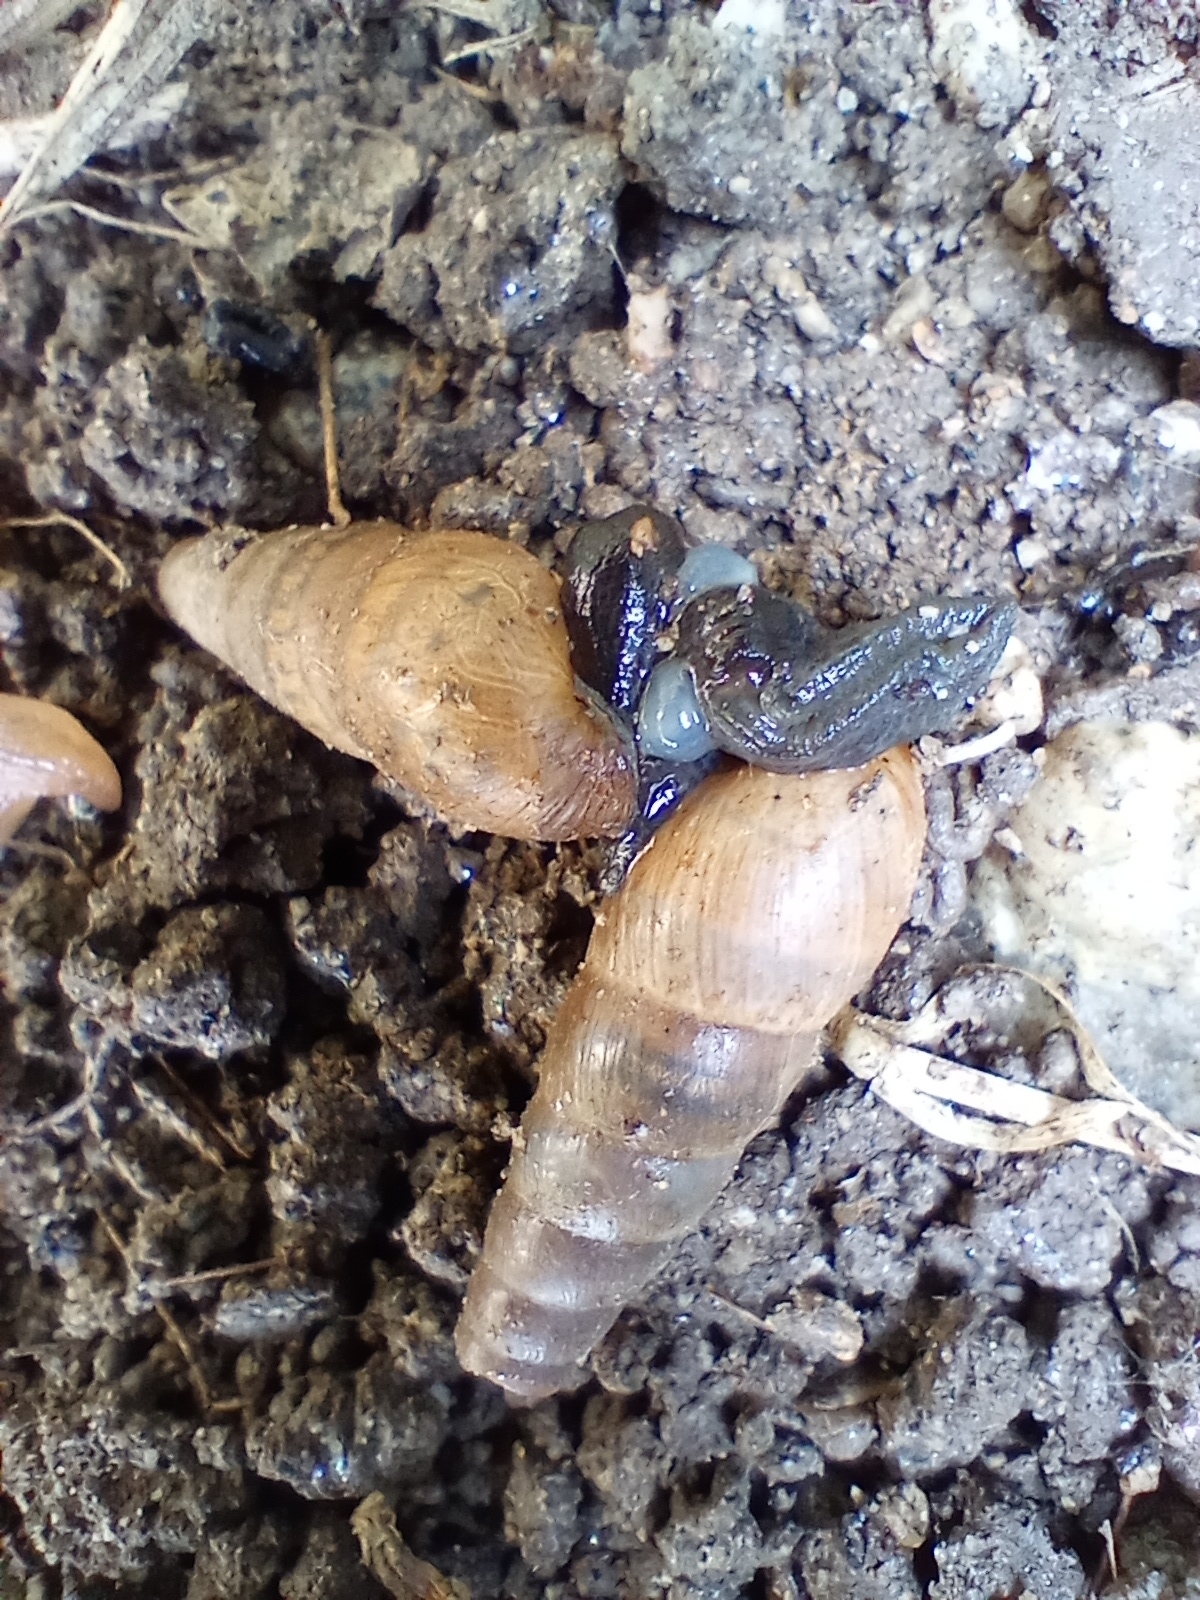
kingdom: Animalia
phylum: Mollusca
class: Gastropoda
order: Stylommatophora
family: Achatinidae
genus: Rumina
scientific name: Rumina decollata
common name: Decollate snail
